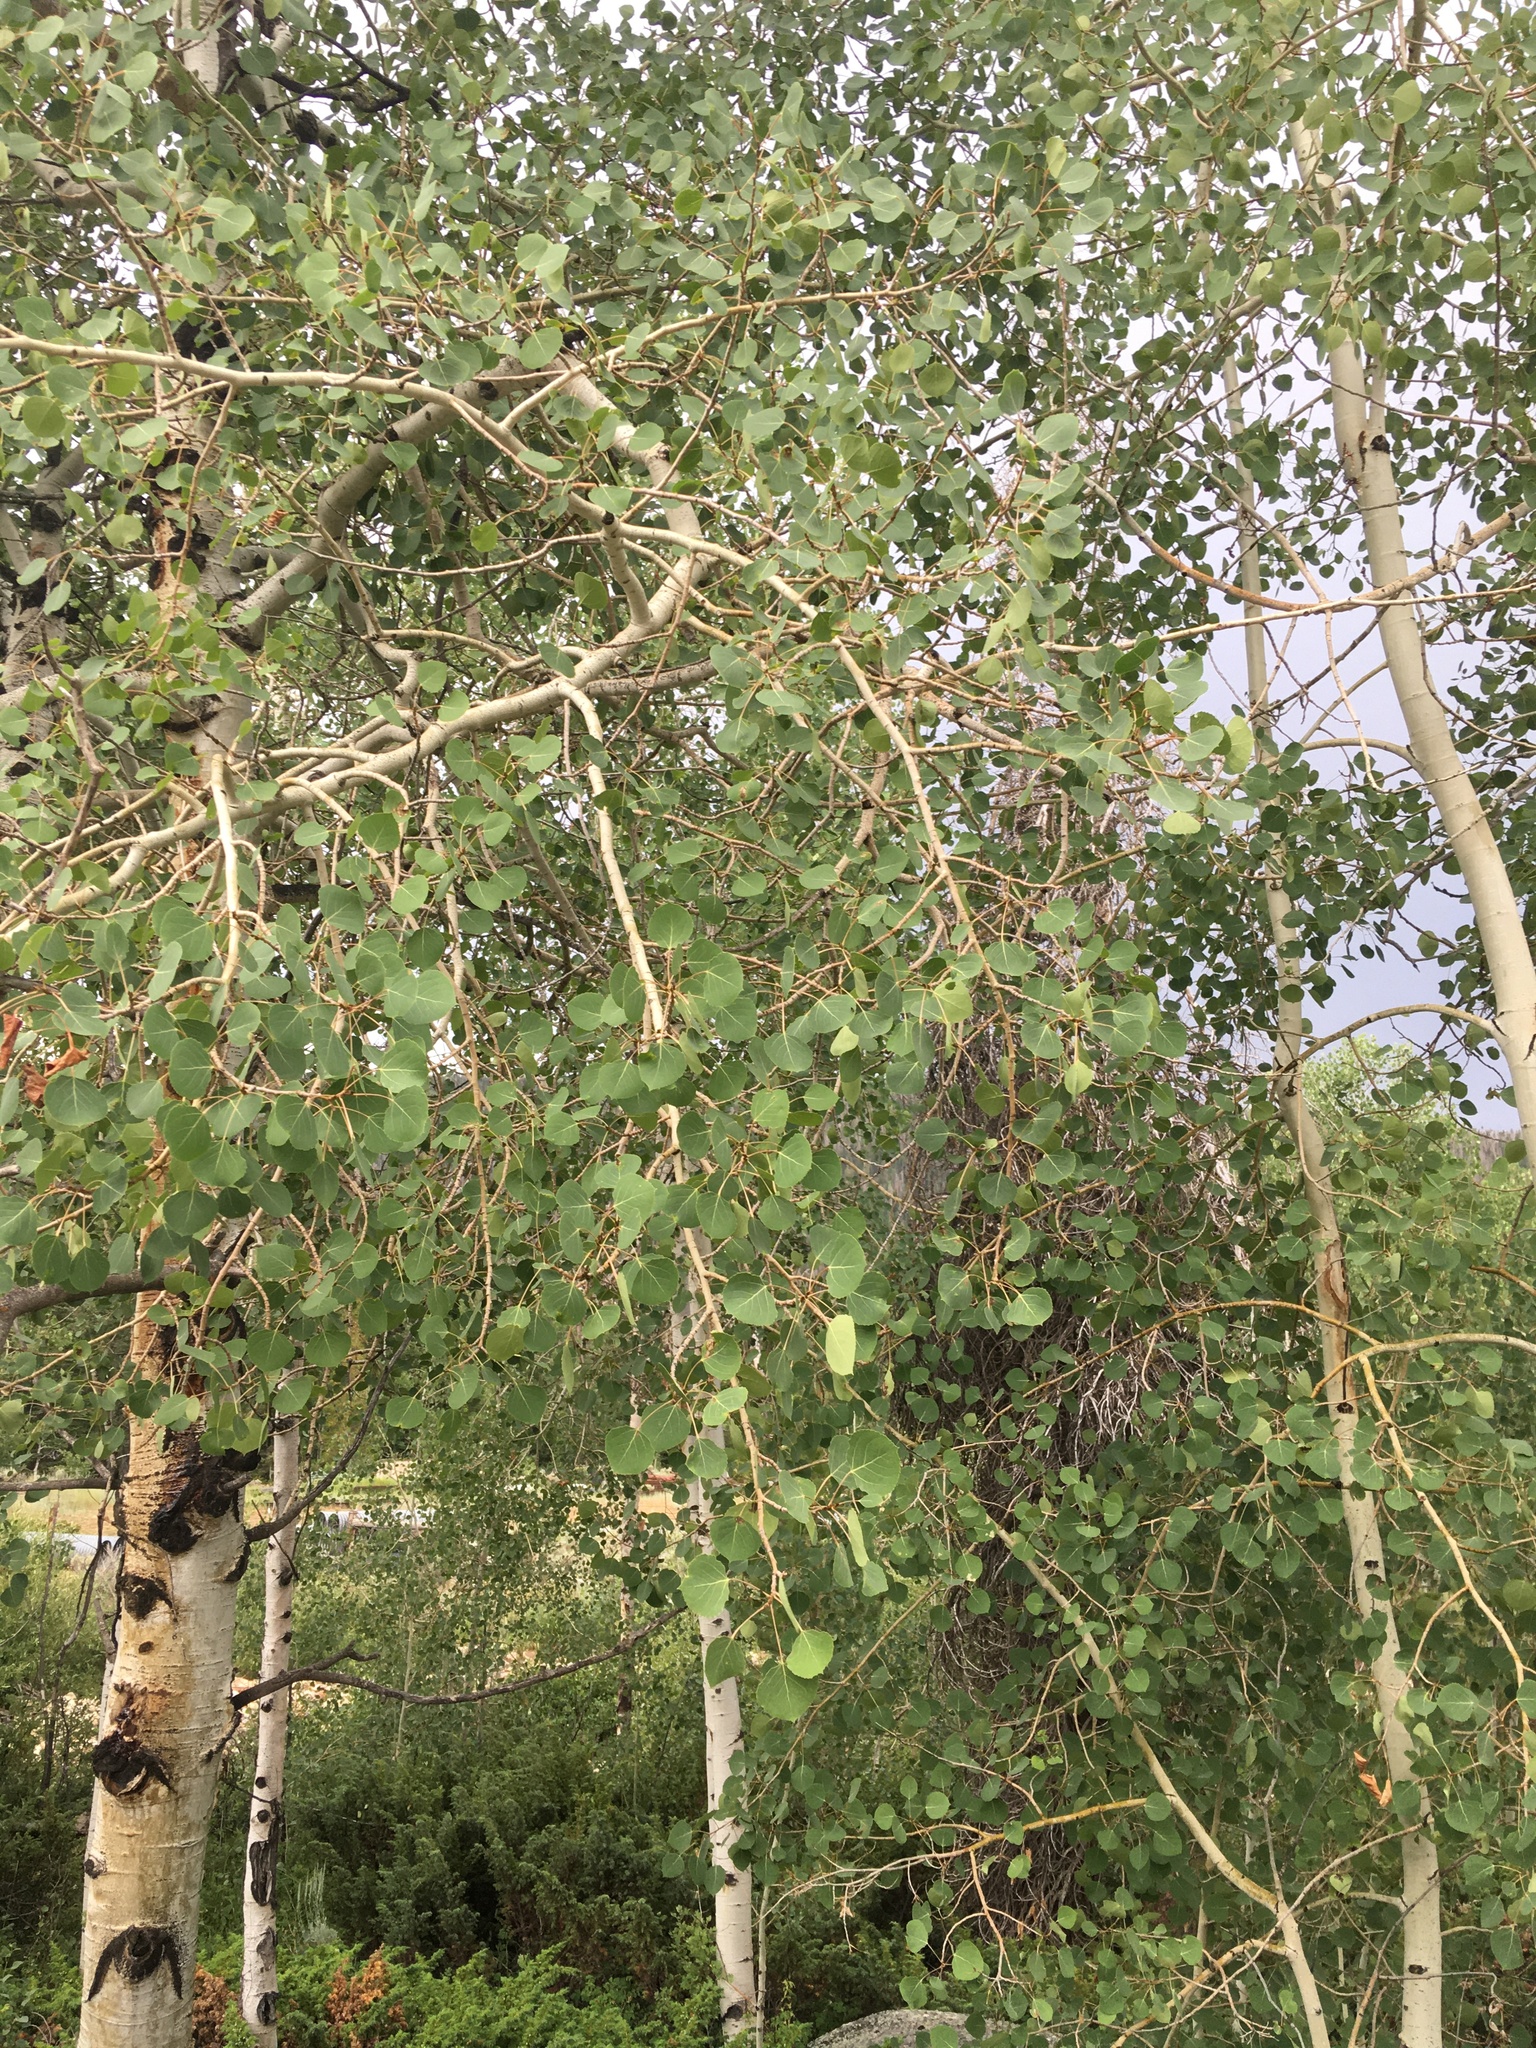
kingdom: Plantae
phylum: Tracheophyta
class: Magnoliopsida
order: Malpighiales
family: Salicaceae
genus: Populus
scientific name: Populus tremuloides
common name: Quaking aspen
